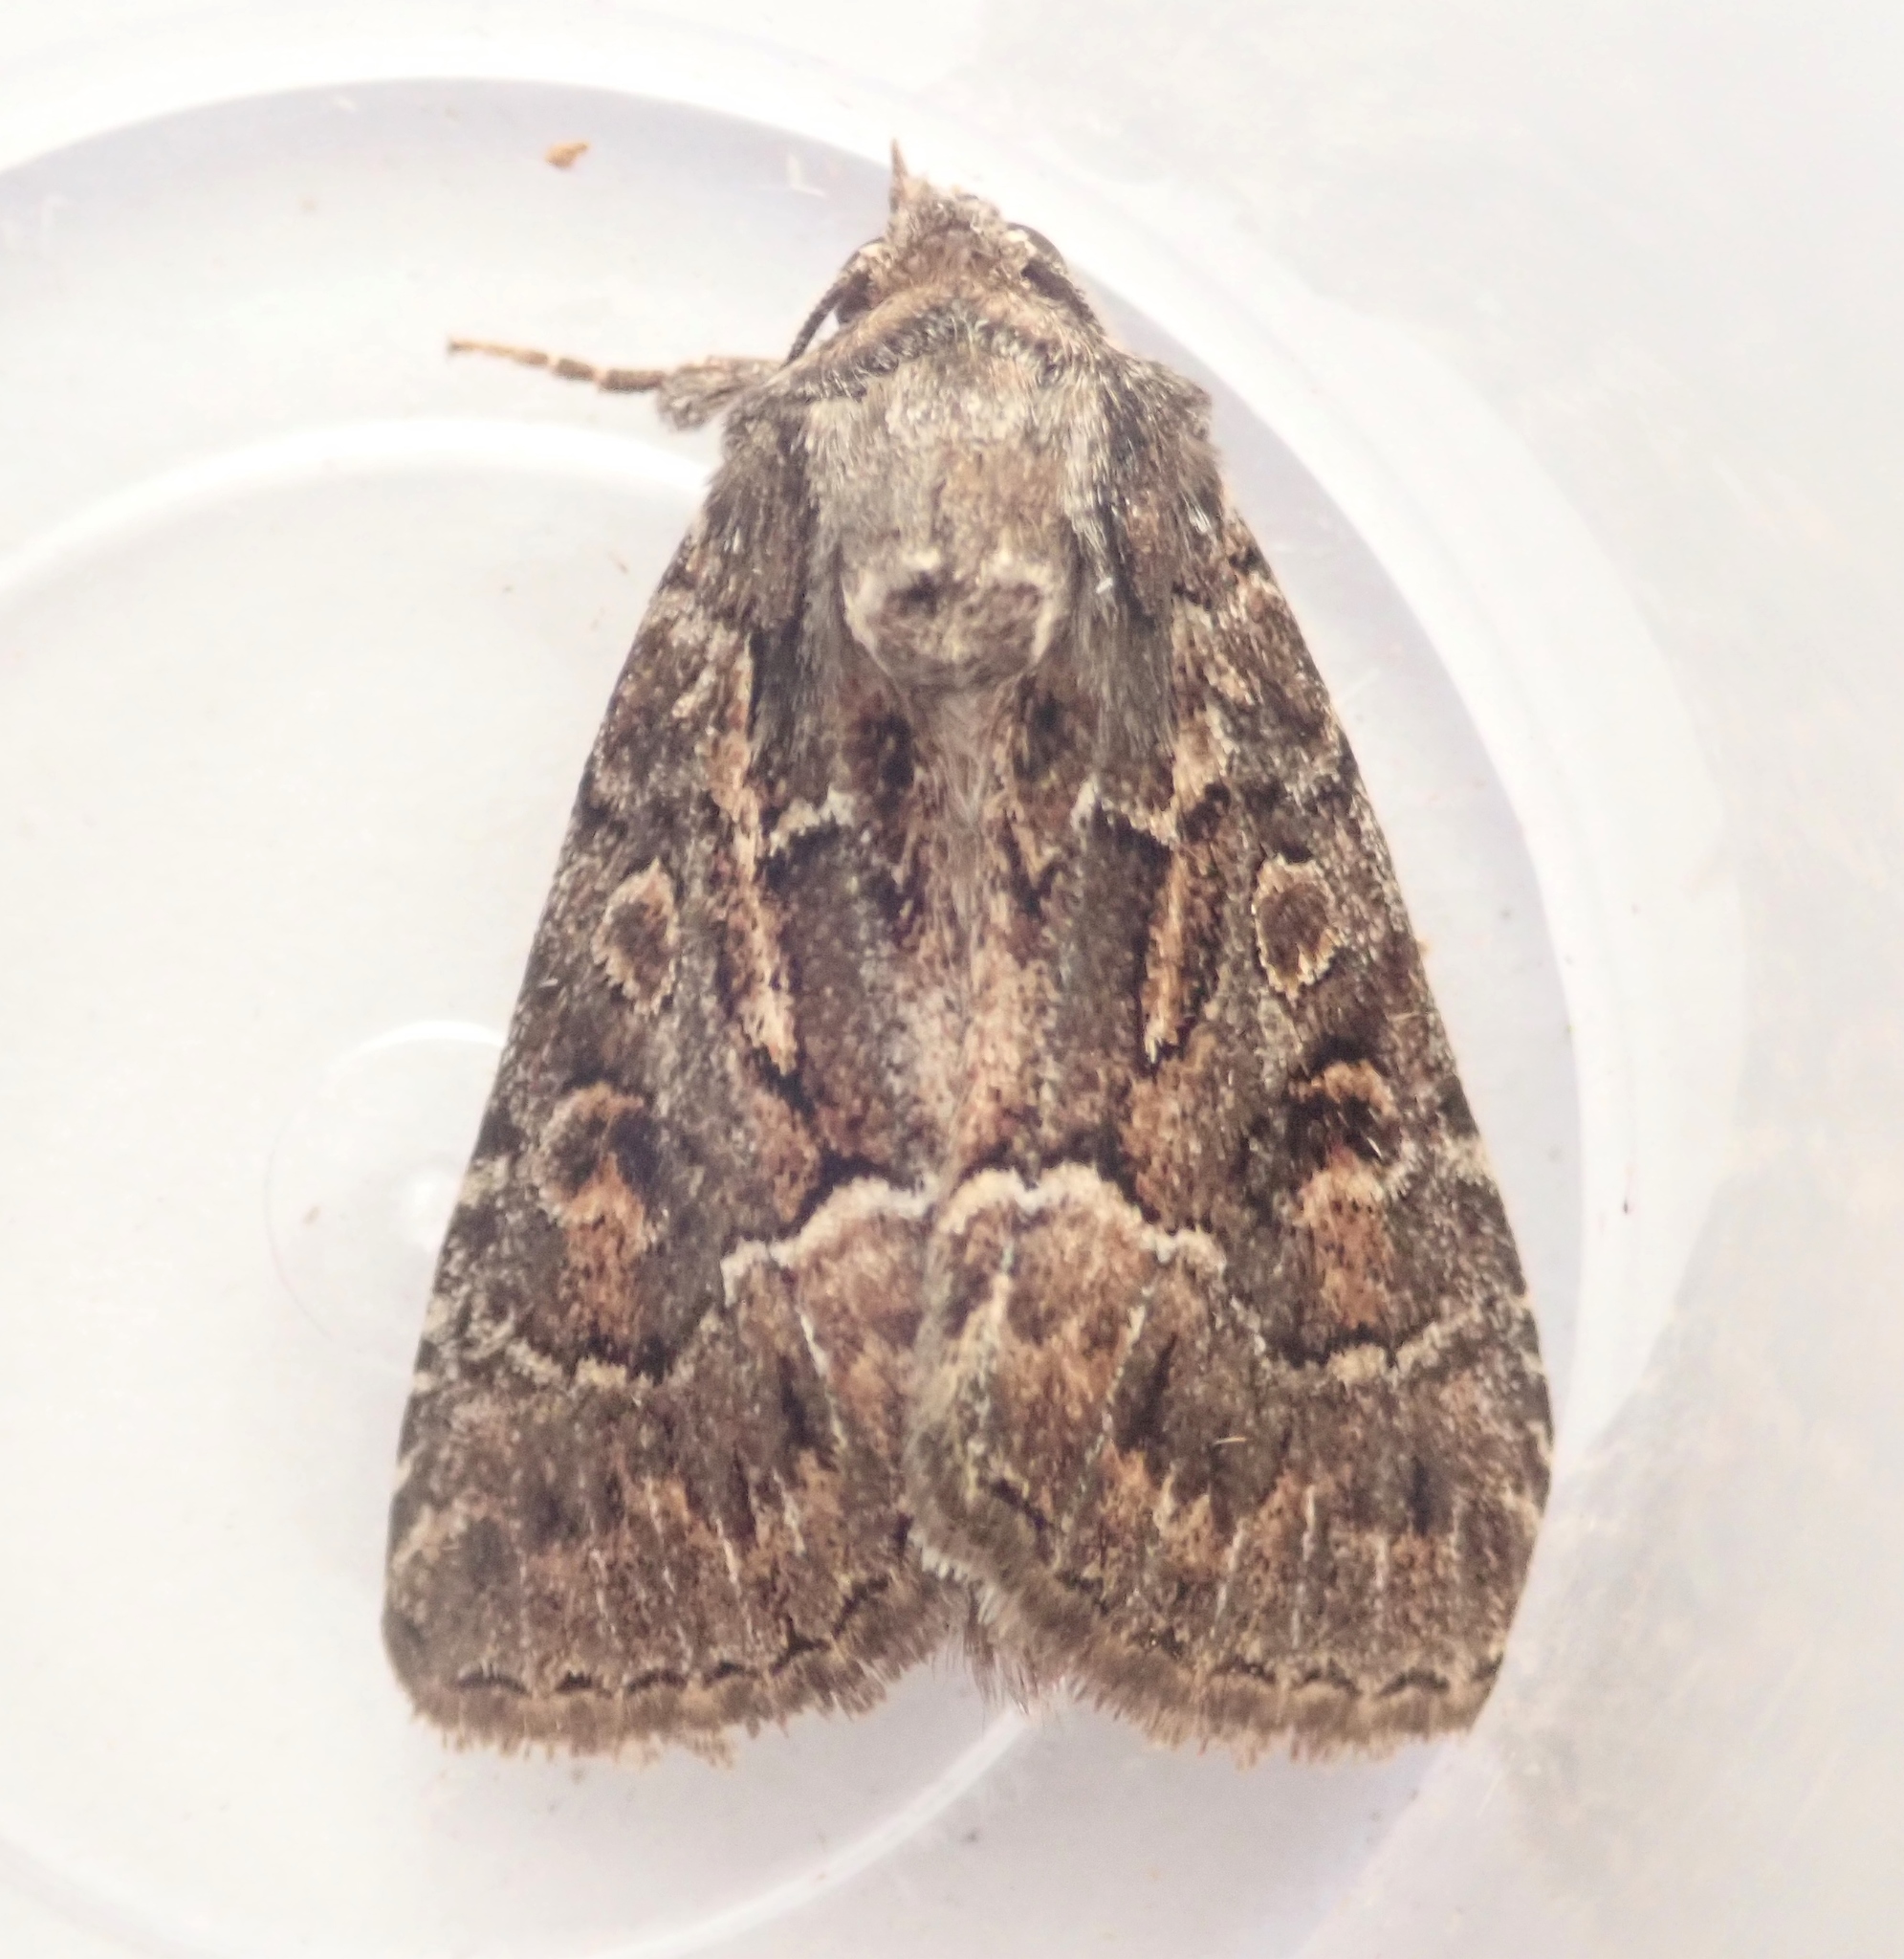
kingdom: Animalia
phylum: Arthropoda
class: Insecta
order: Lepidoptera
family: Noctuidae
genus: Thalpophila
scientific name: Thalpophila matura
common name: Straw underwing
